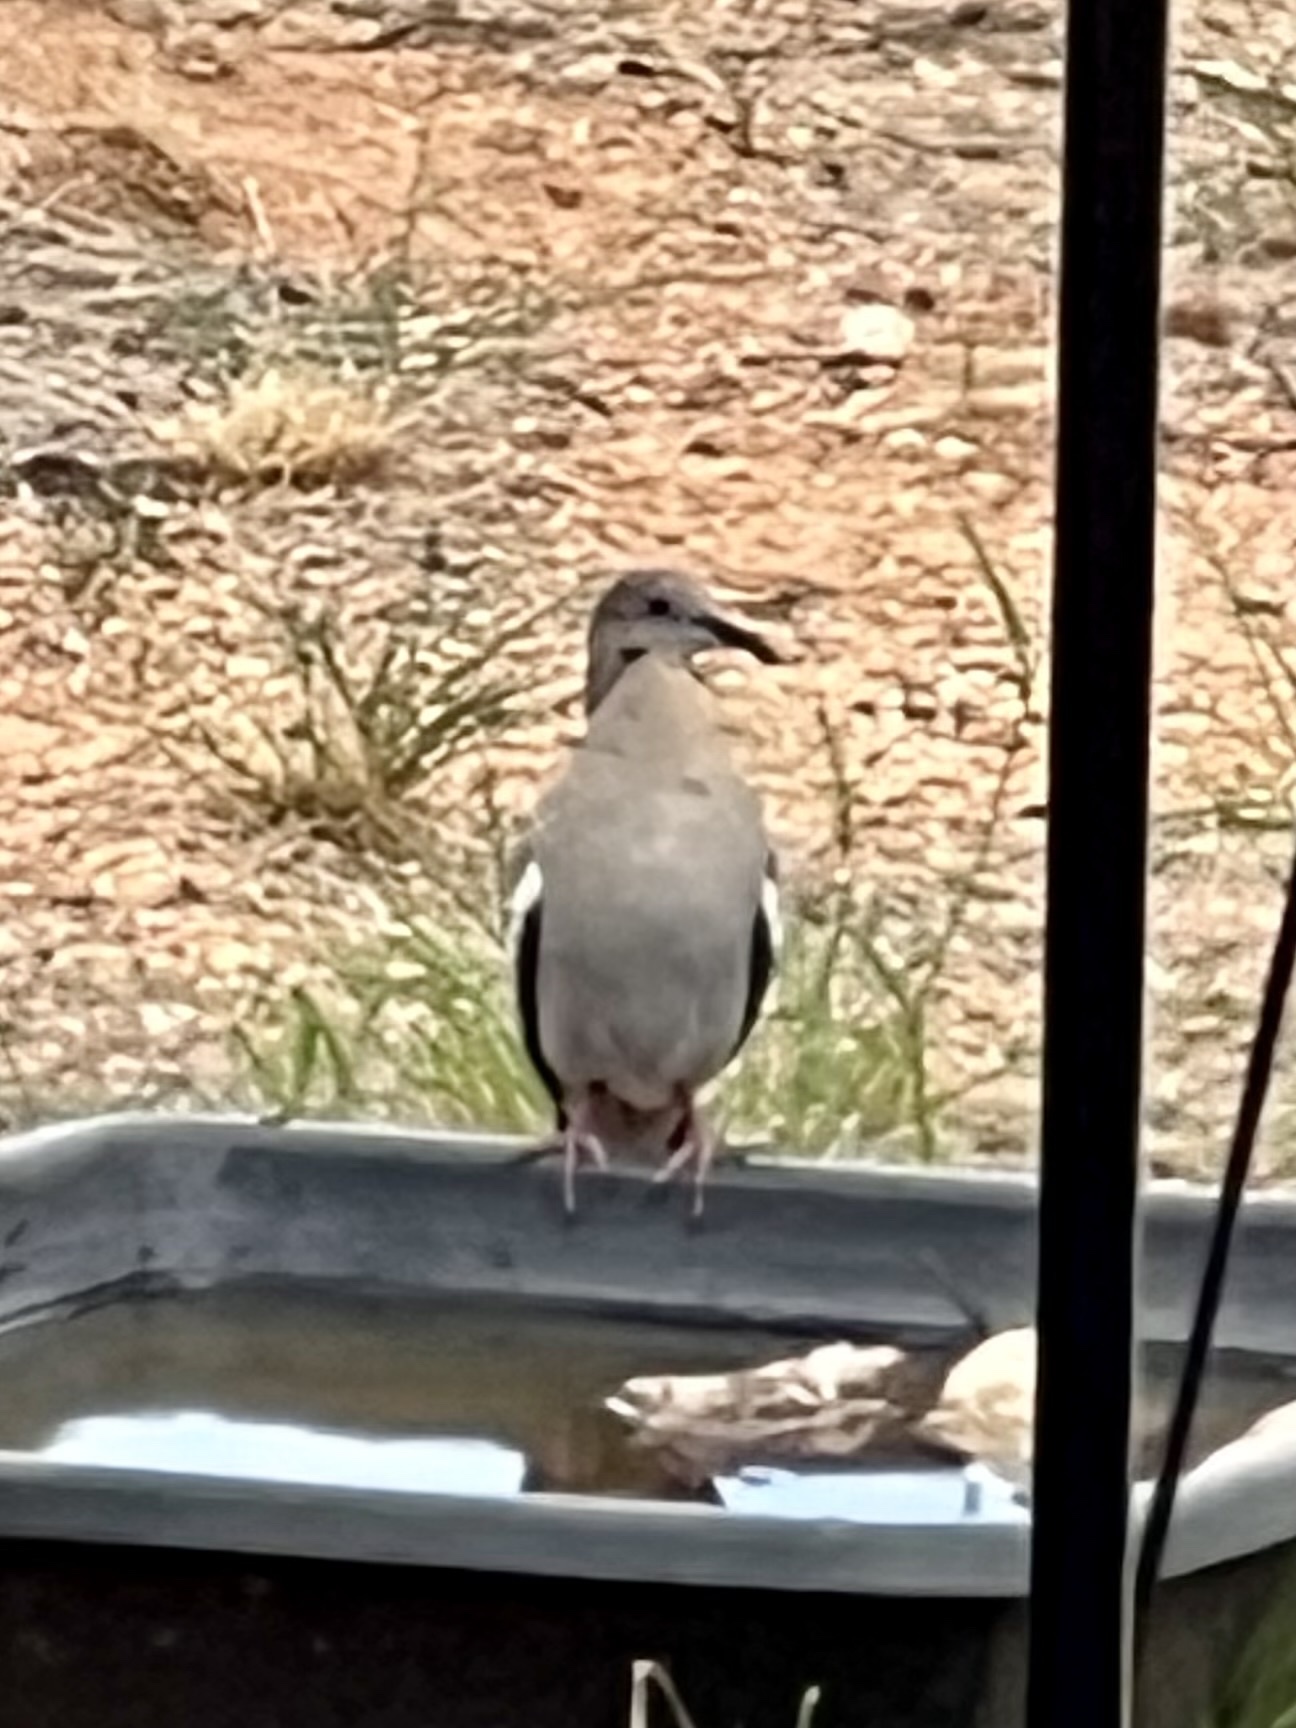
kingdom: Animalia
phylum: Chordata
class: Aves
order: Columbiformes
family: Columbidae
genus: Zenaida
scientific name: Zenaida asiatica
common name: White-winged dove
